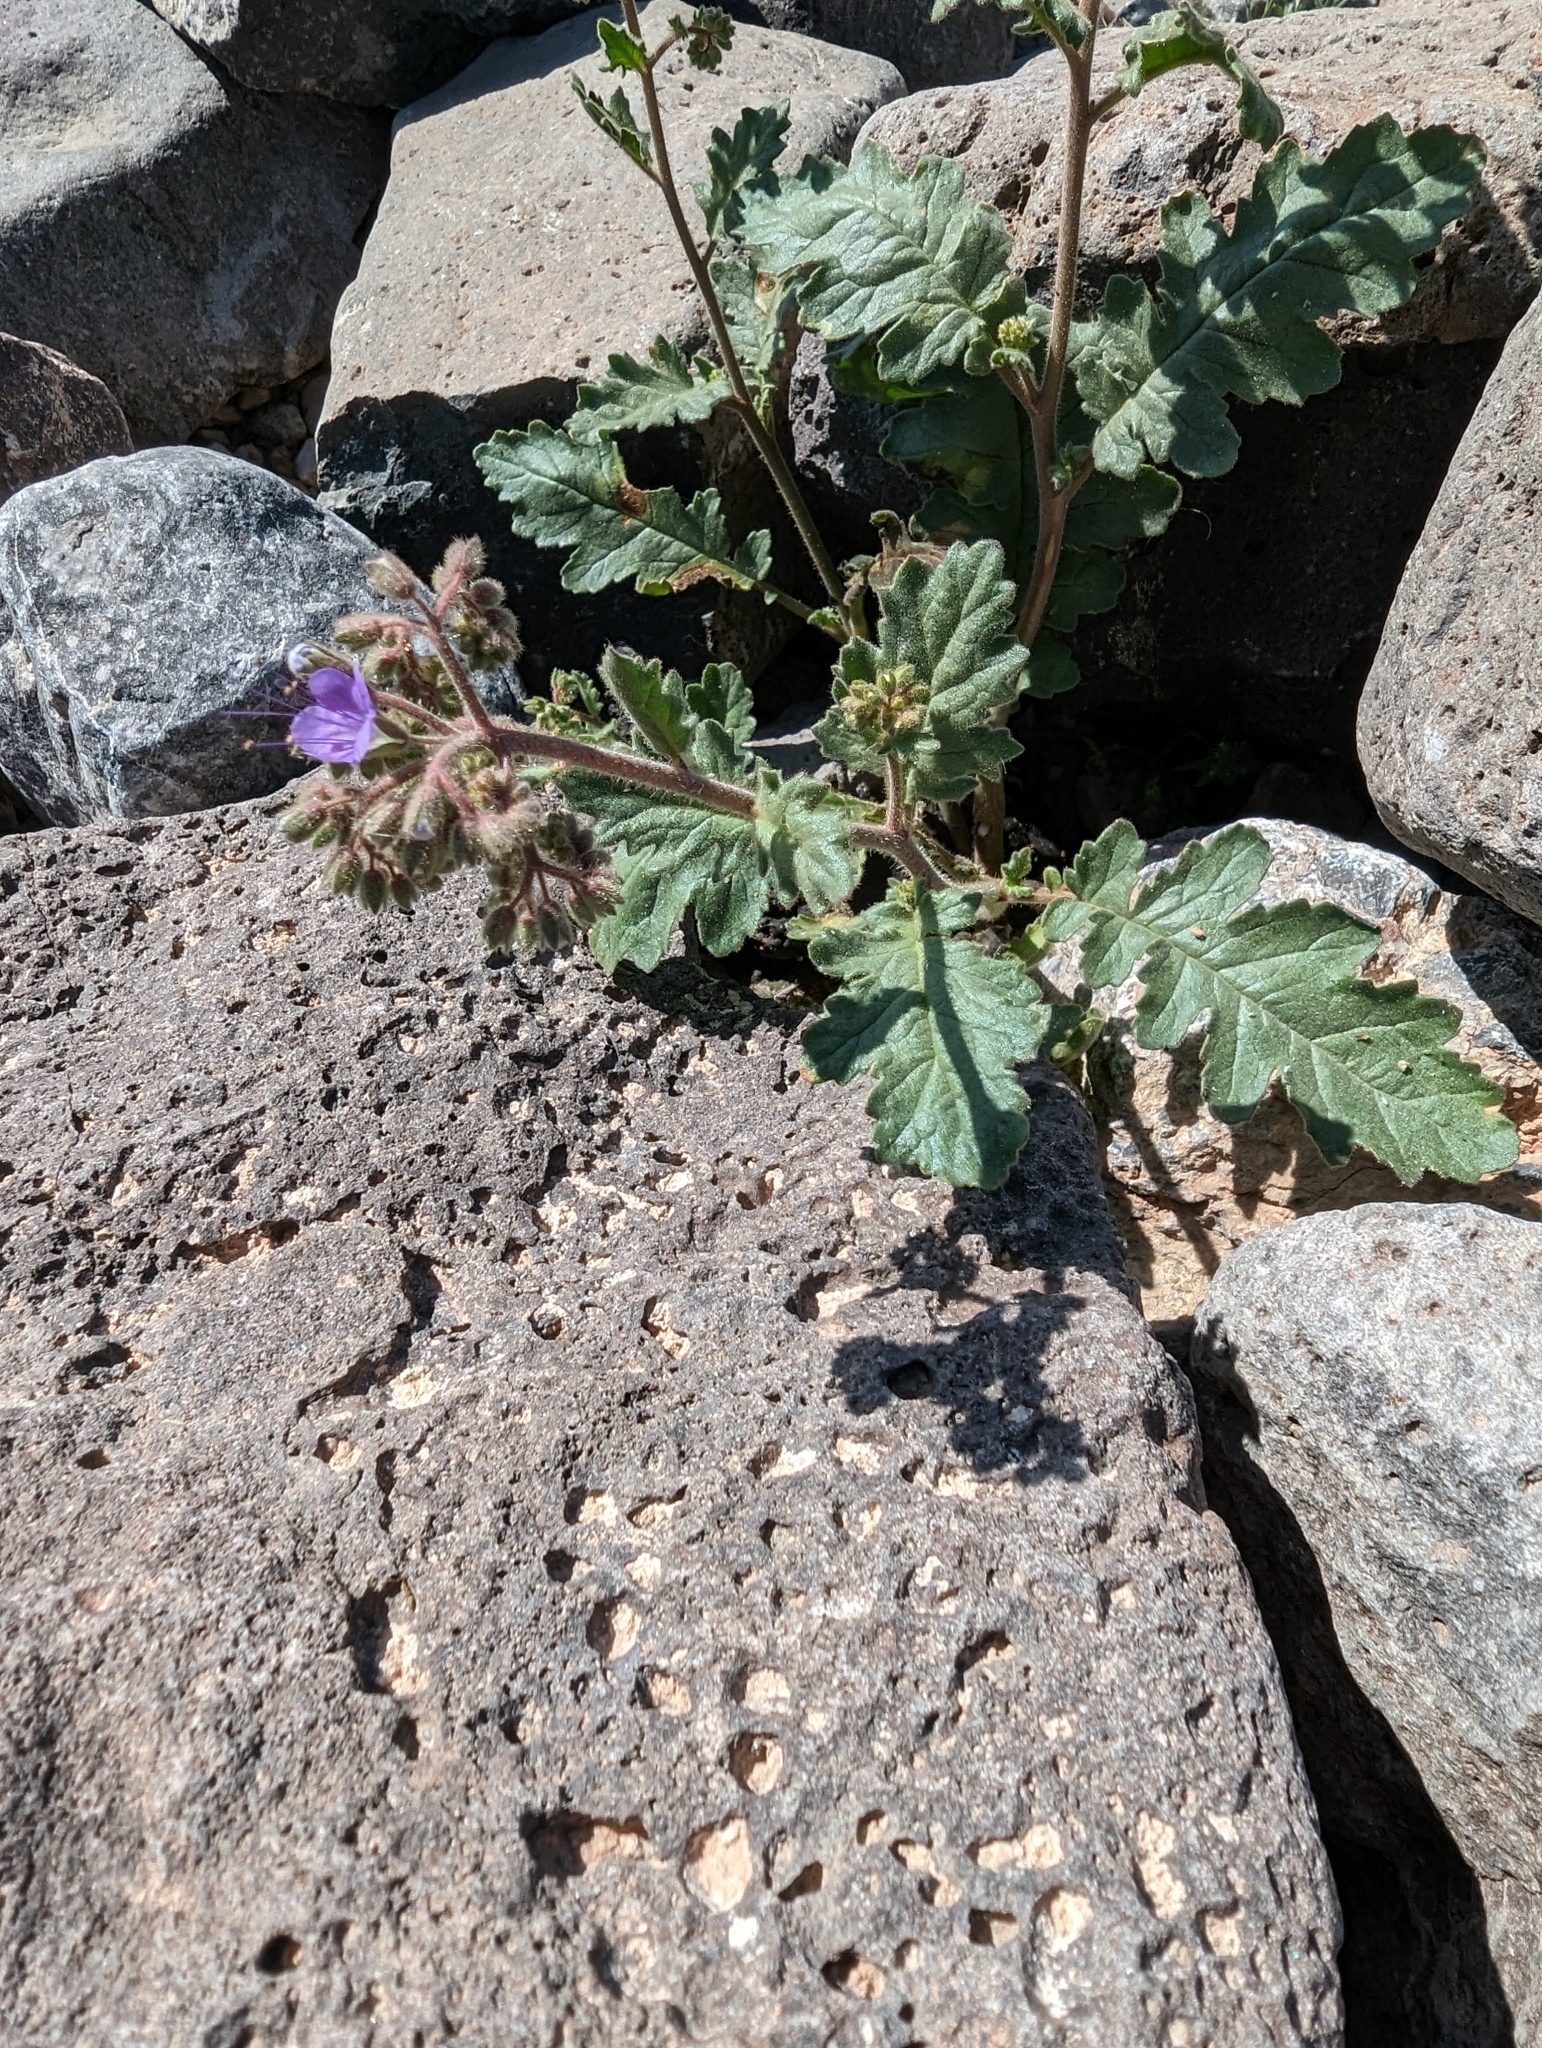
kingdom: Plantae
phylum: Tracheophyta
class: Magnoliopsida
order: Boraginales
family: Hydrophyllaceae
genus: Phacelia
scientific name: Phacelia crenulata
